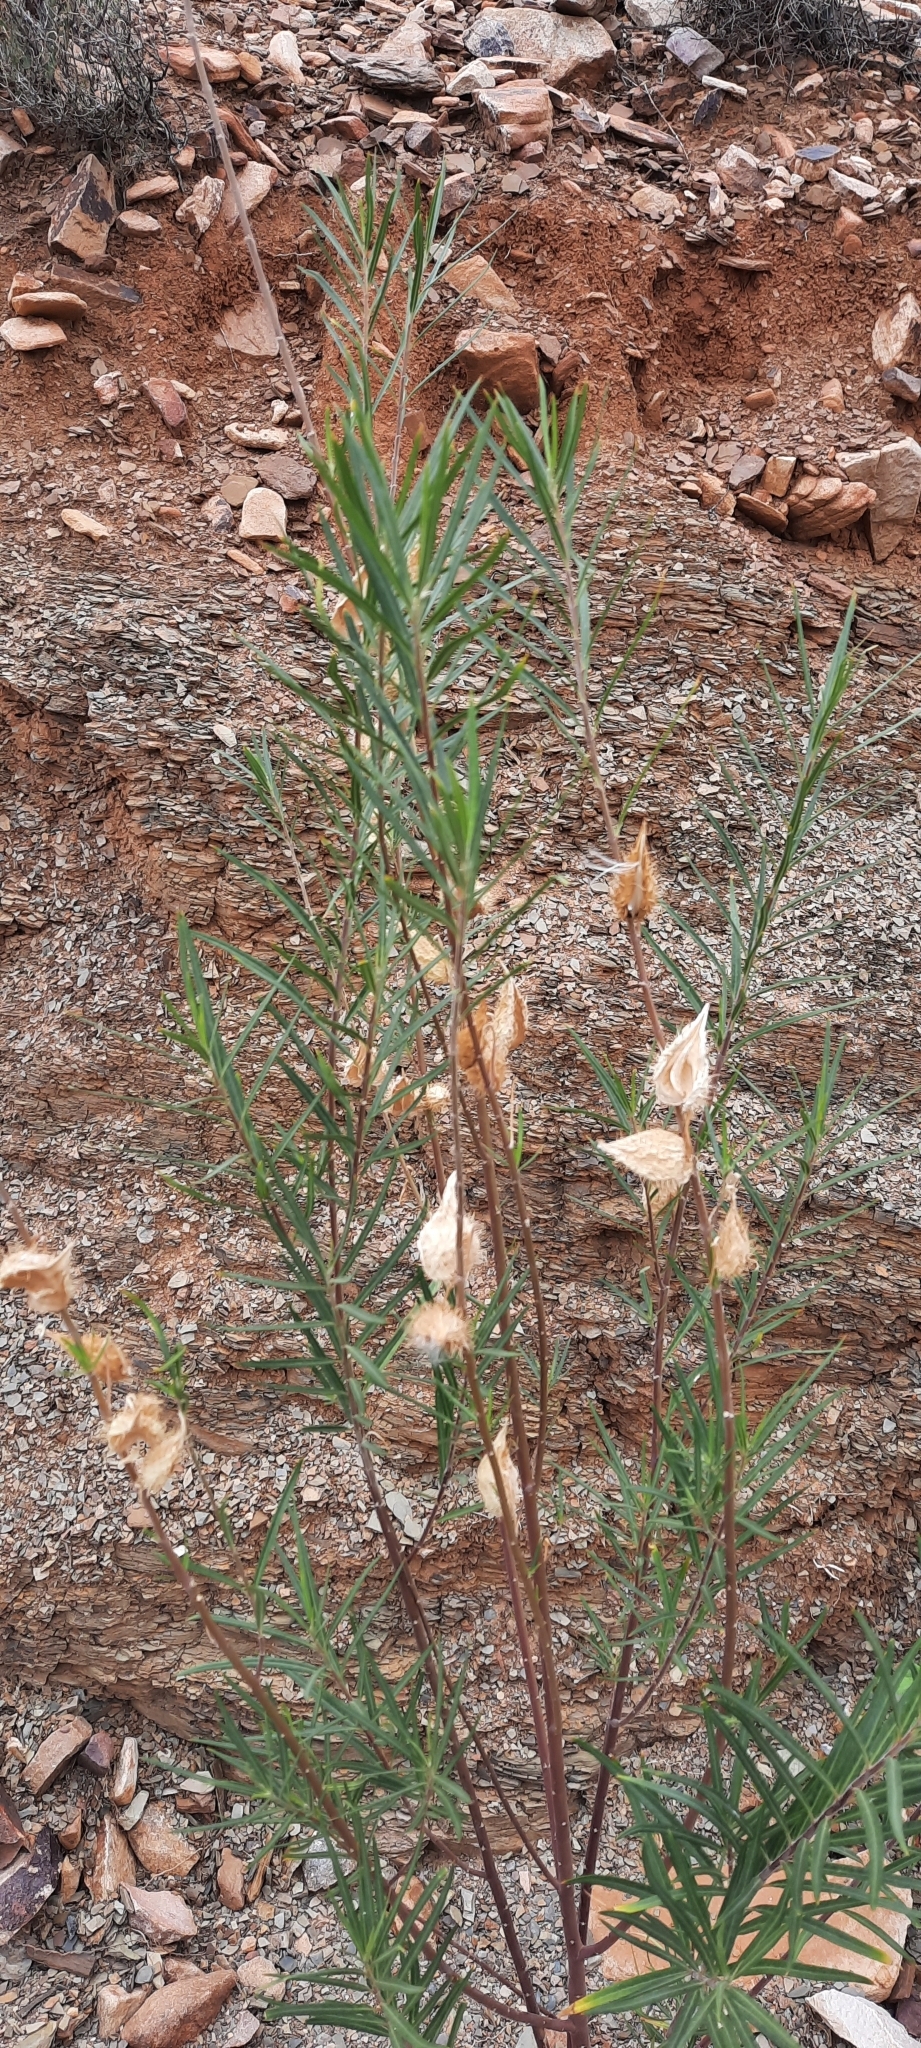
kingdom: Plantae
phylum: Tracheophyta
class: Magnoliopsida
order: Gentianales
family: Apocynaceae
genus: Gomphocarpus
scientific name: Gomphocarpus fruticosus
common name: Milkweed
